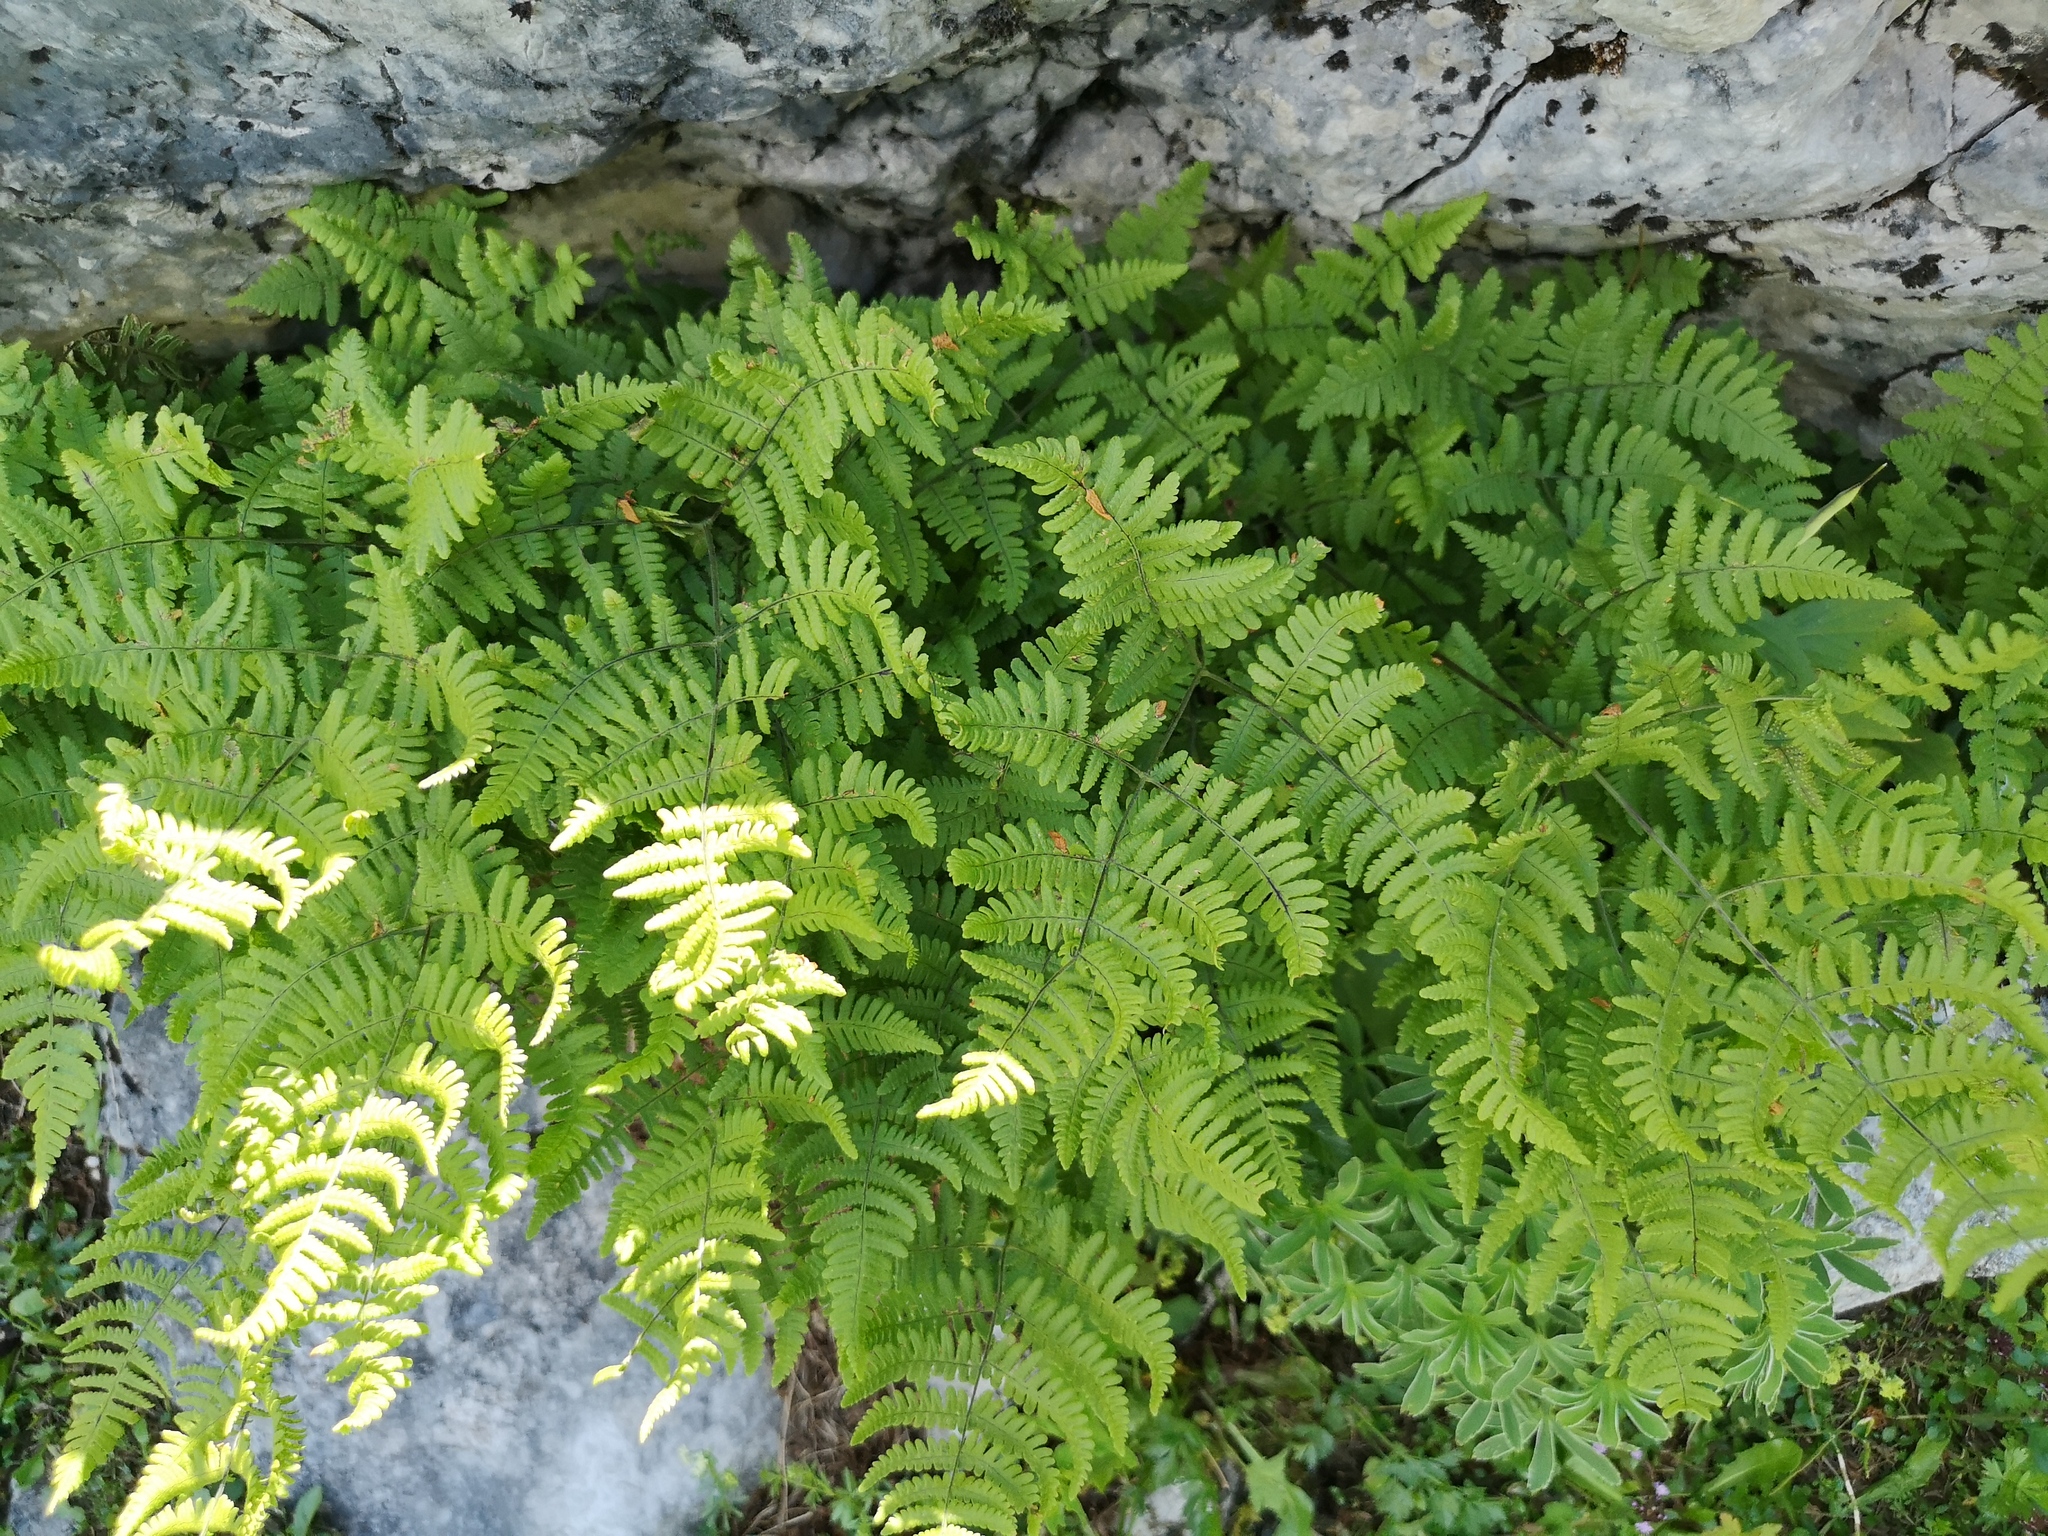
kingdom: Plantae
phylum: Tracheophyta
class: Polypodiopsida
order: Polypodiales
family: Cystopteridaceae
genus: Gymnocarpium
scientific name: Gymnocarpium robertianum
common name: Limestone fern
